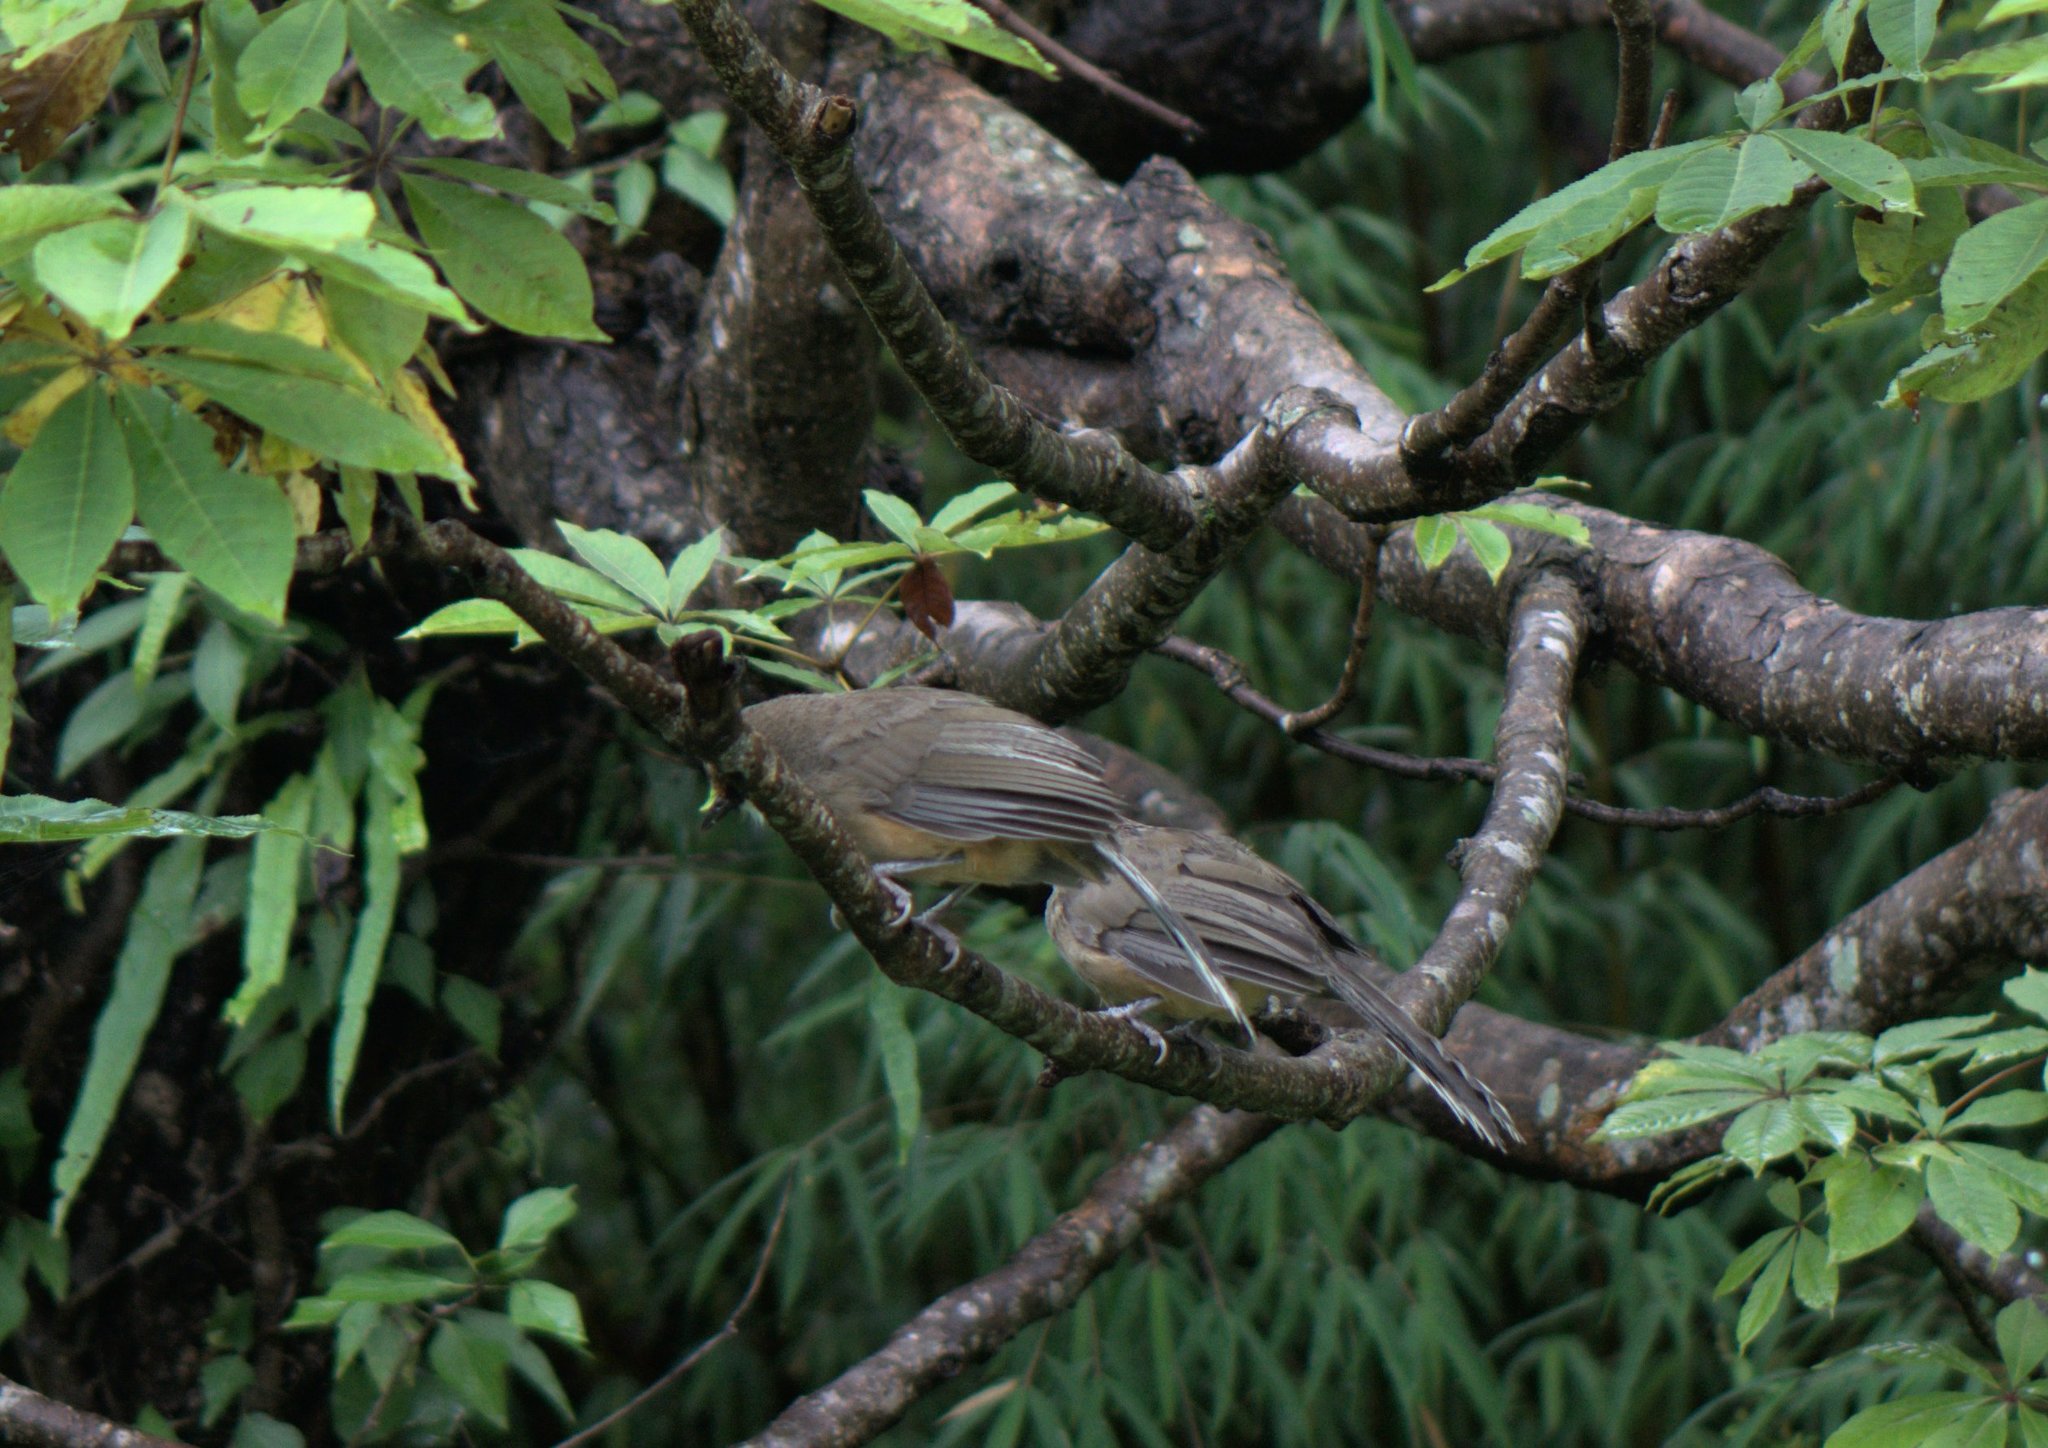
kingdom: Animalia
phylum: Chordata
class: Aves
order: Passeriformes
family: Leiothrichidae
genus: Garrulax
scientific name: Garrulax albogularis
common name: White-throated laughingthrush
